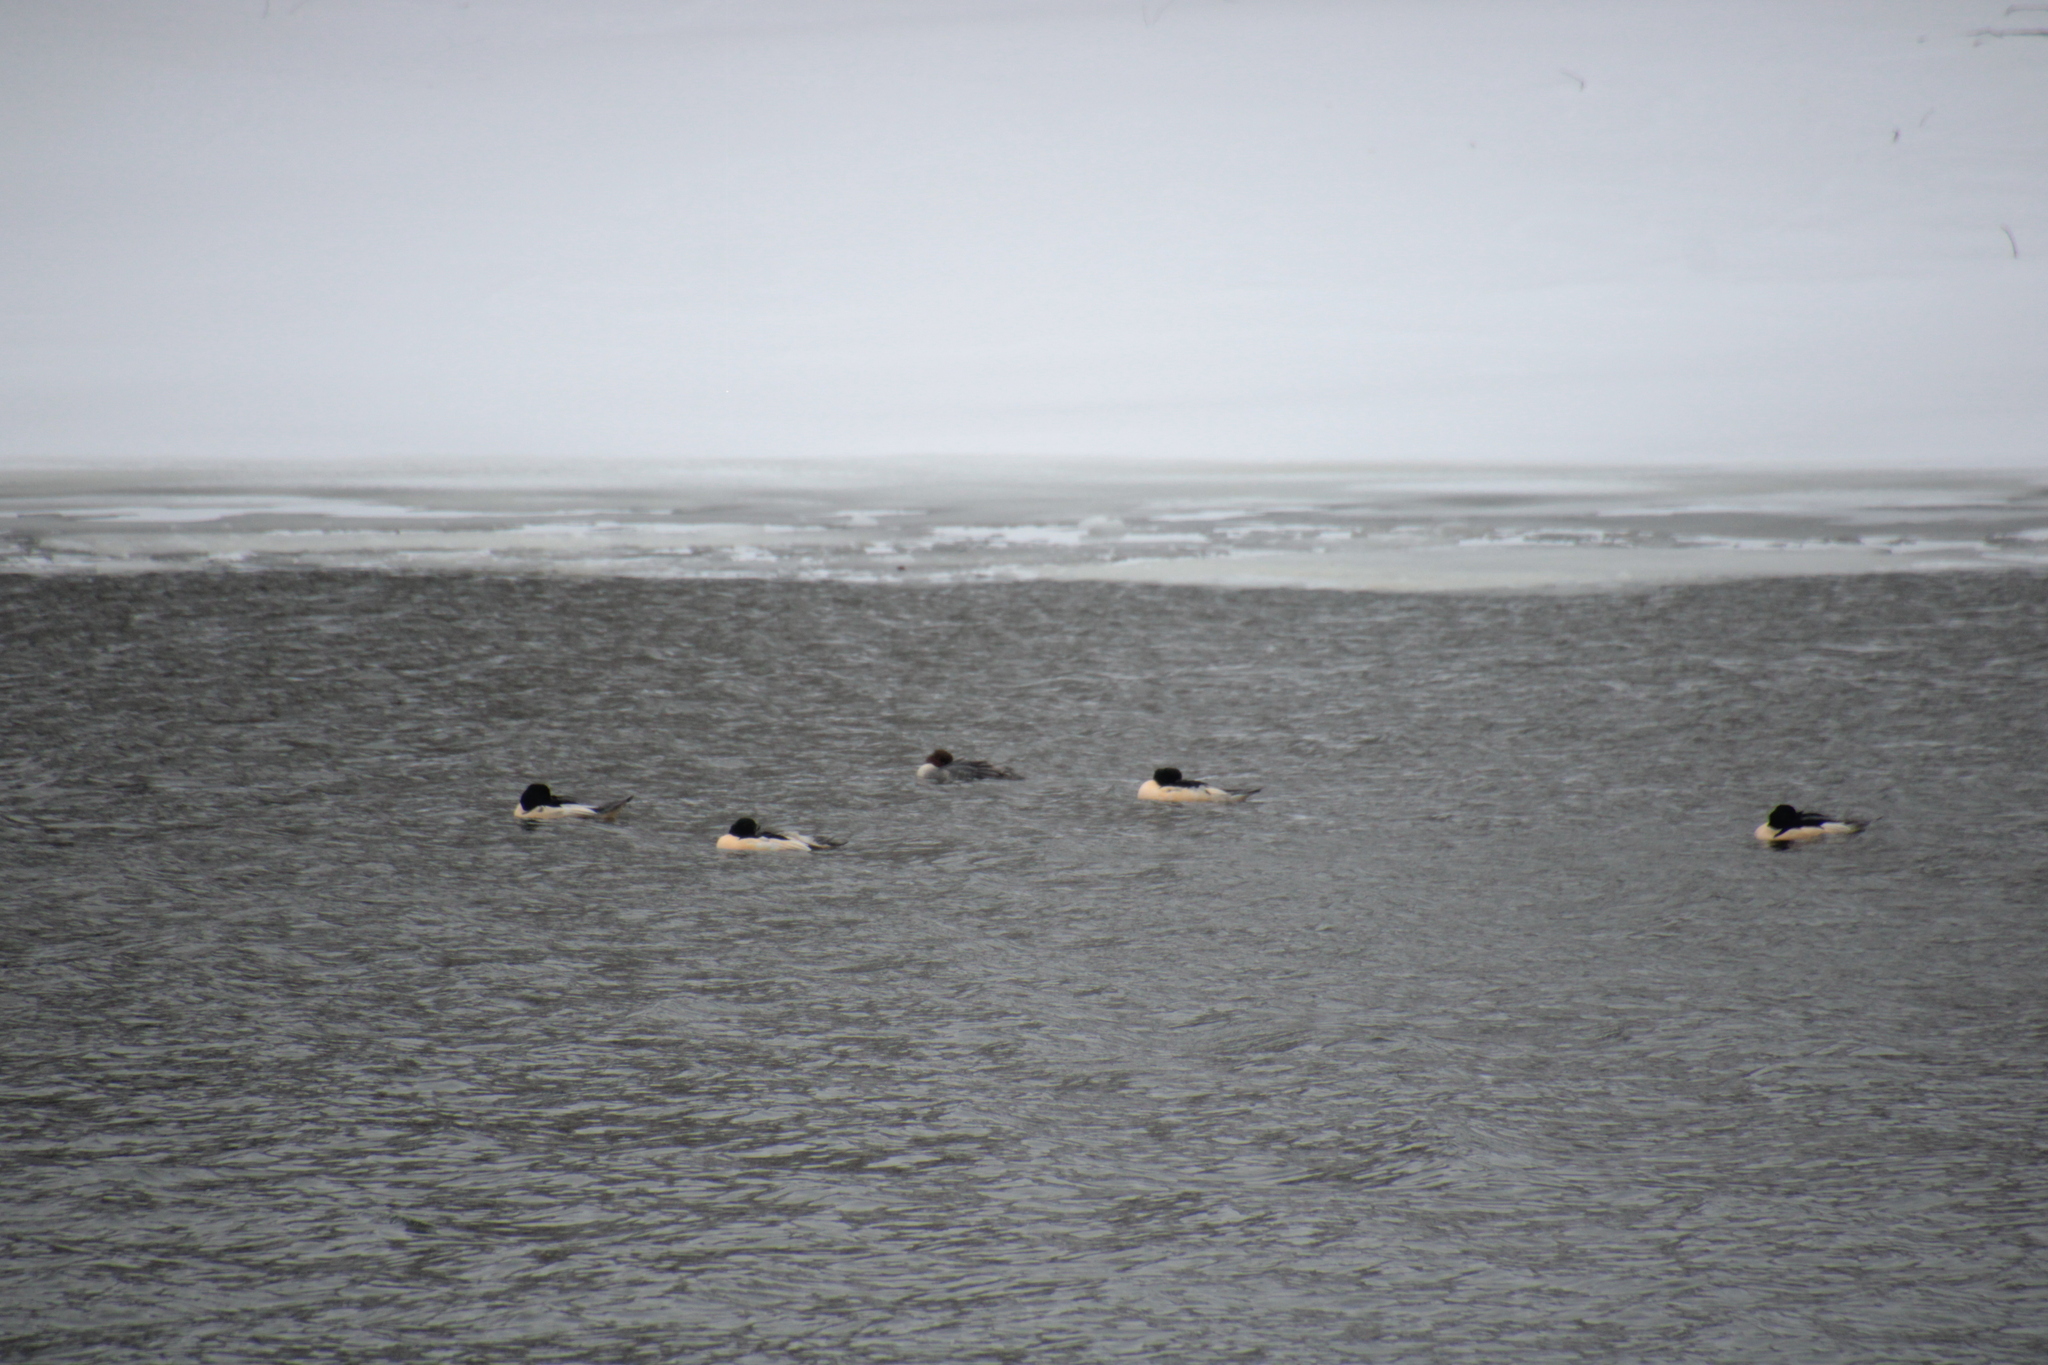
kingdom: Animalia
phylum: Chordata
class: Aves
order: Anseriformes
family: Anatidae
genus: Mergus
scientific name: Mergus merganser
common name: Common merganser
